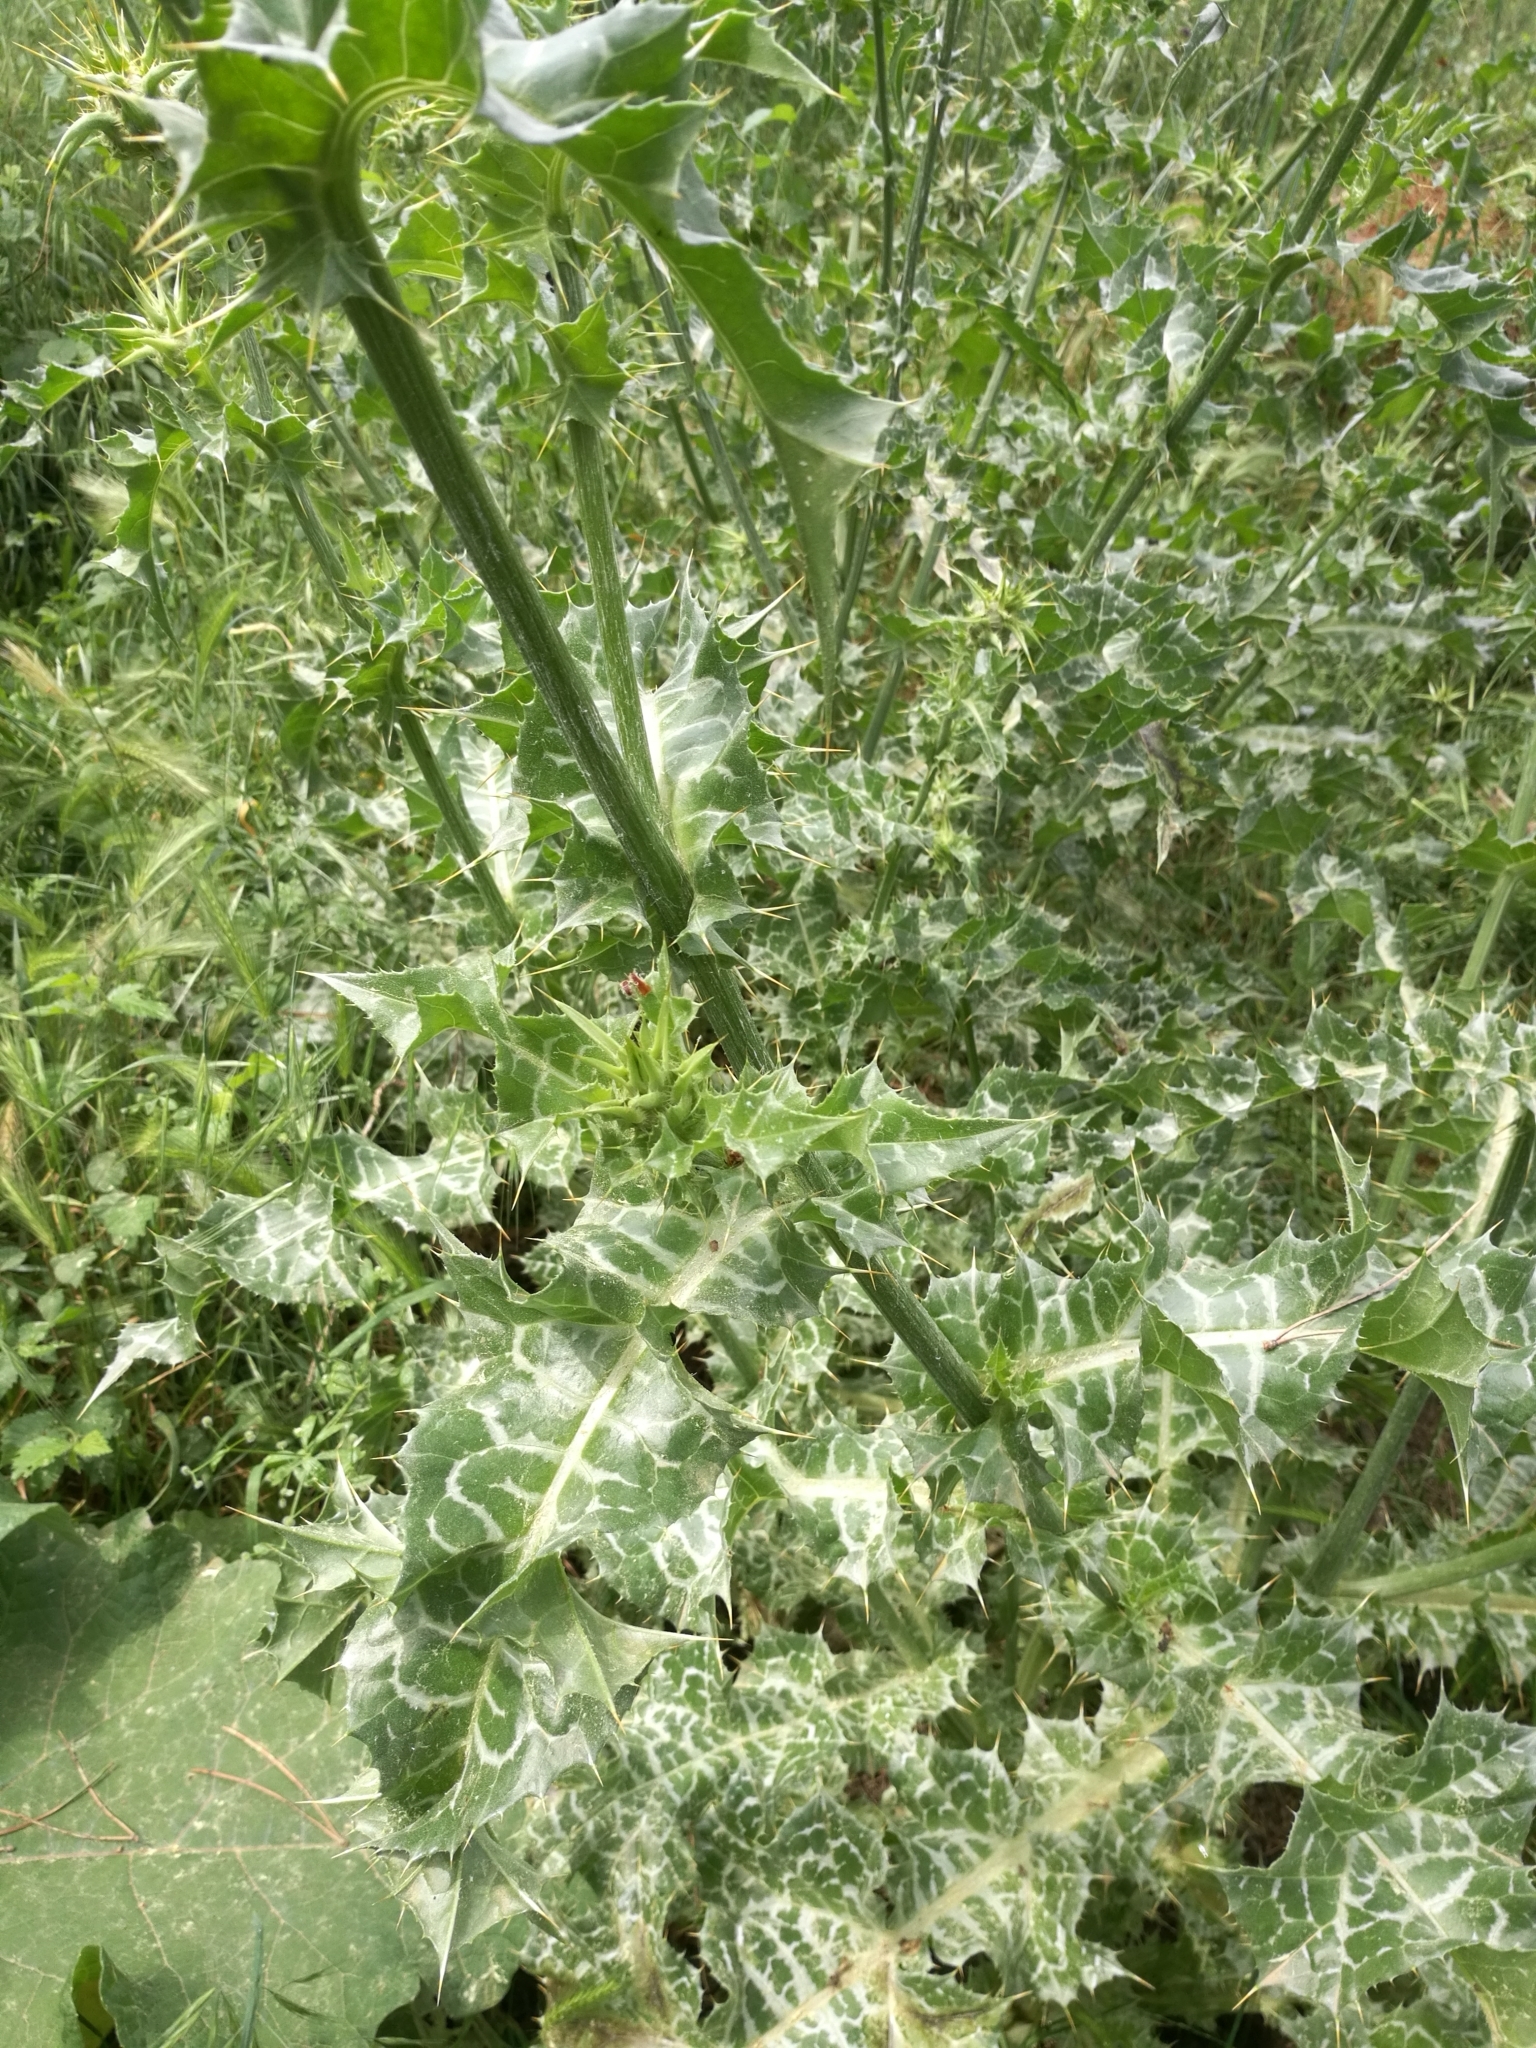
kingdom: Plantae
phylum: Tracheophyta
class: Magnoliopsida
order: Asterales
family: Asteraceae
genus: Silybum
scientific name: Silybum marianum
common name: Milk thistle
